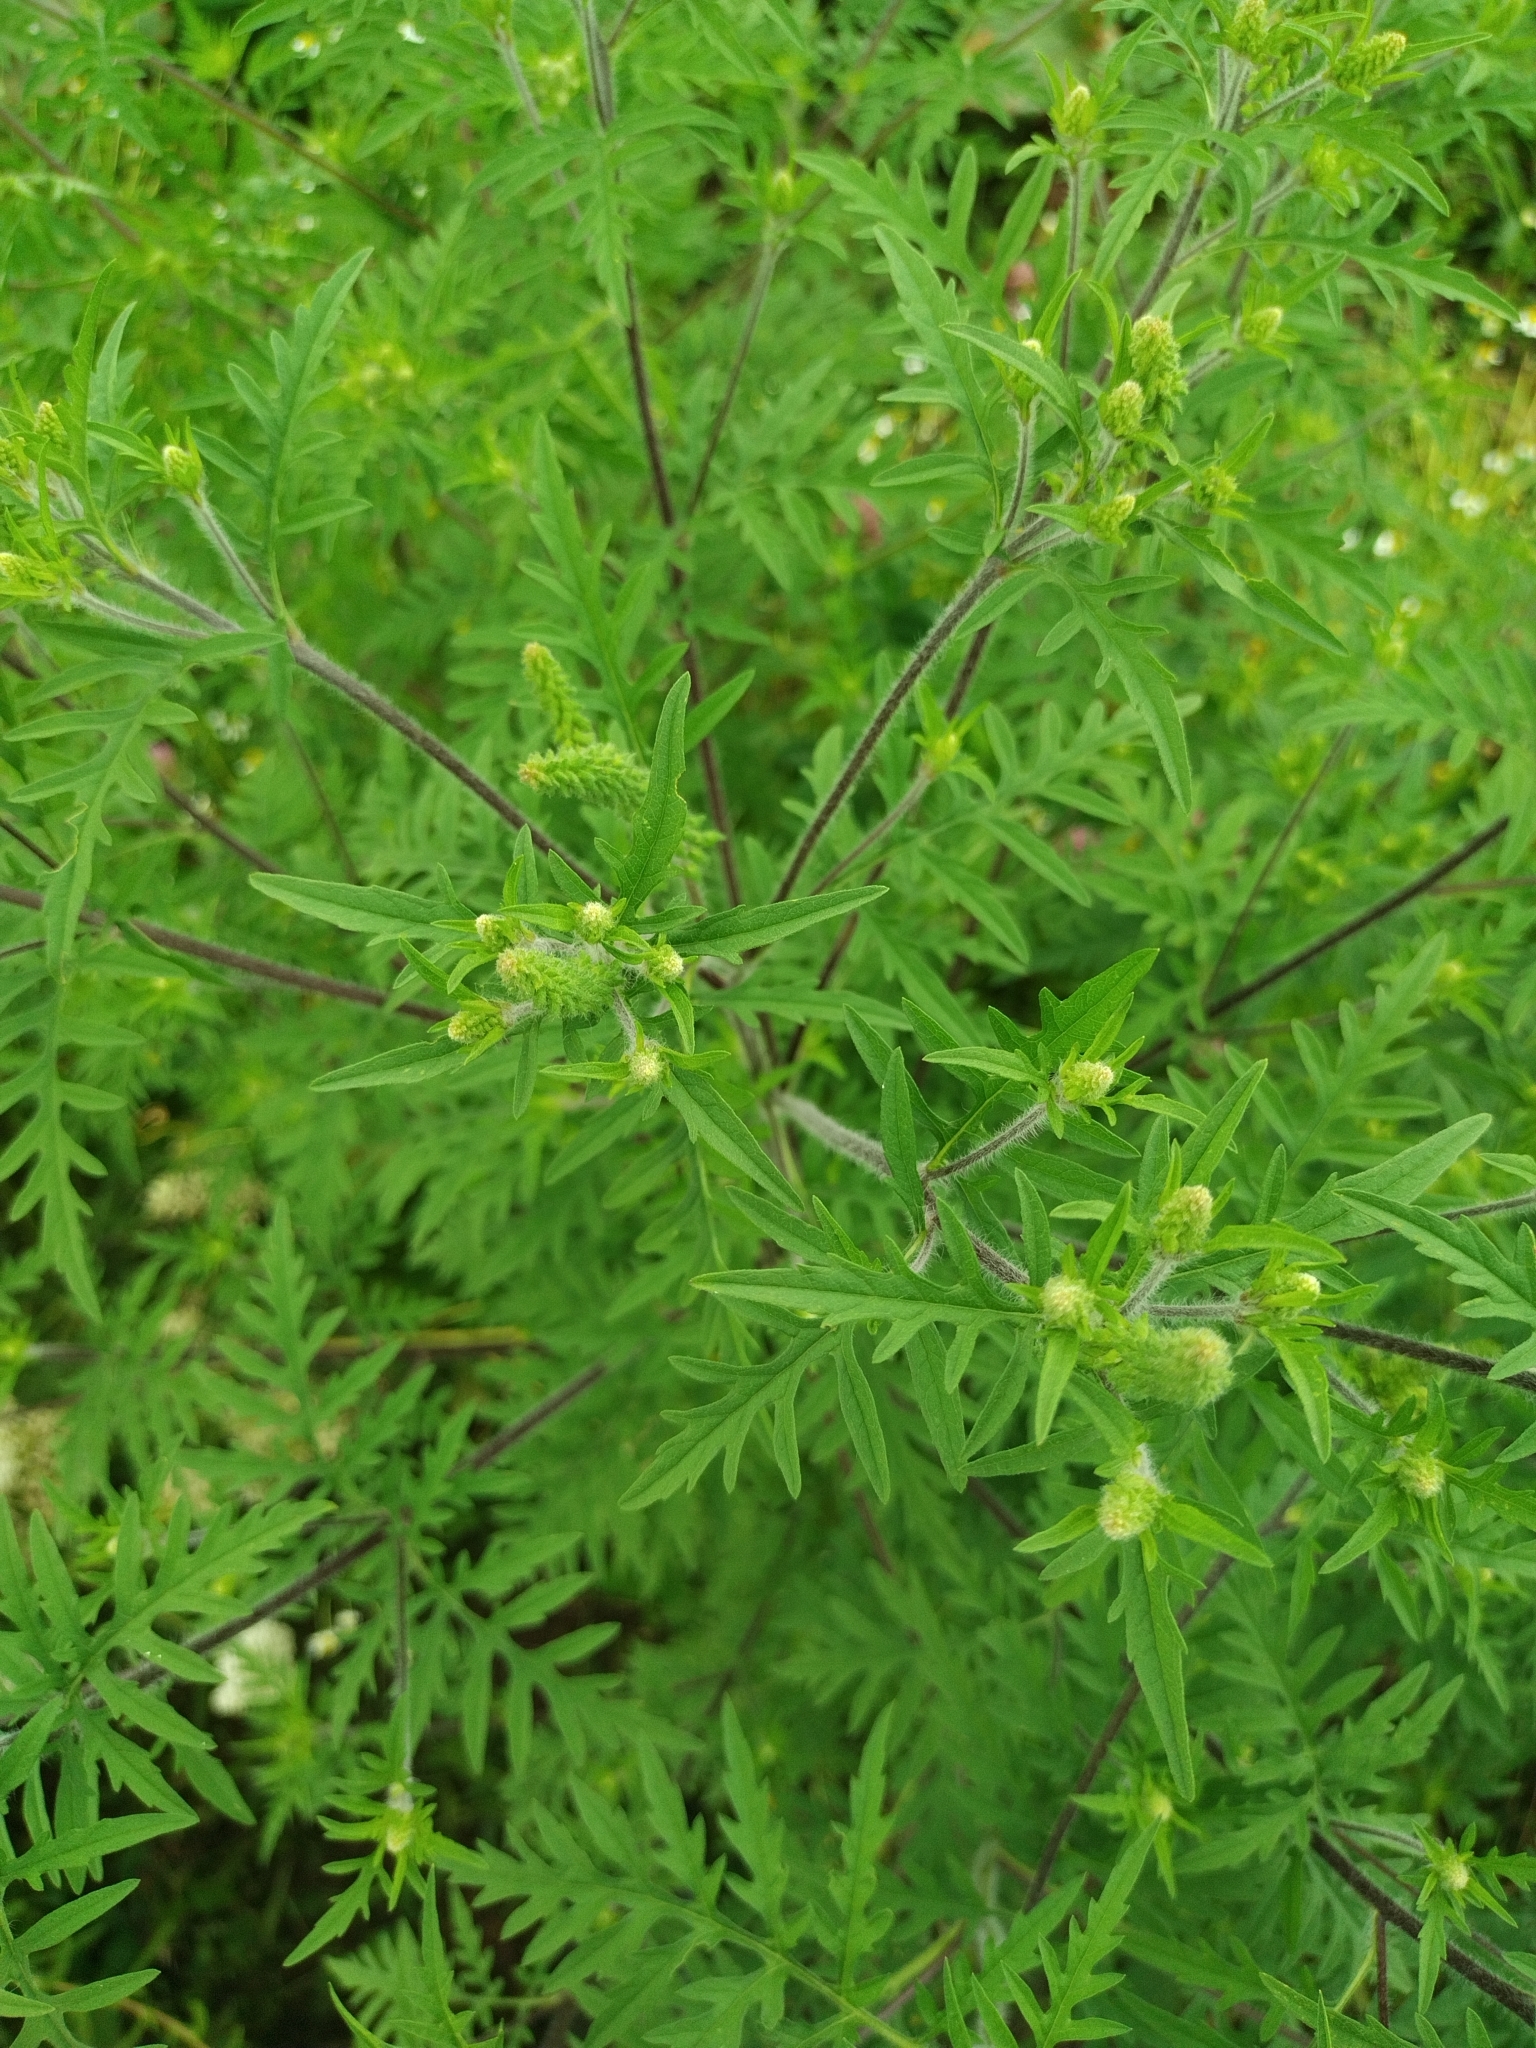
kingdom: Plantae
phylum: Tracheophyta
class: Magnoliopsida
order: Asterales
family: Asteraceae
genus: Ambrosia
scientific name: Ambrosia artemisiifolia
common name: Annual ragweed
